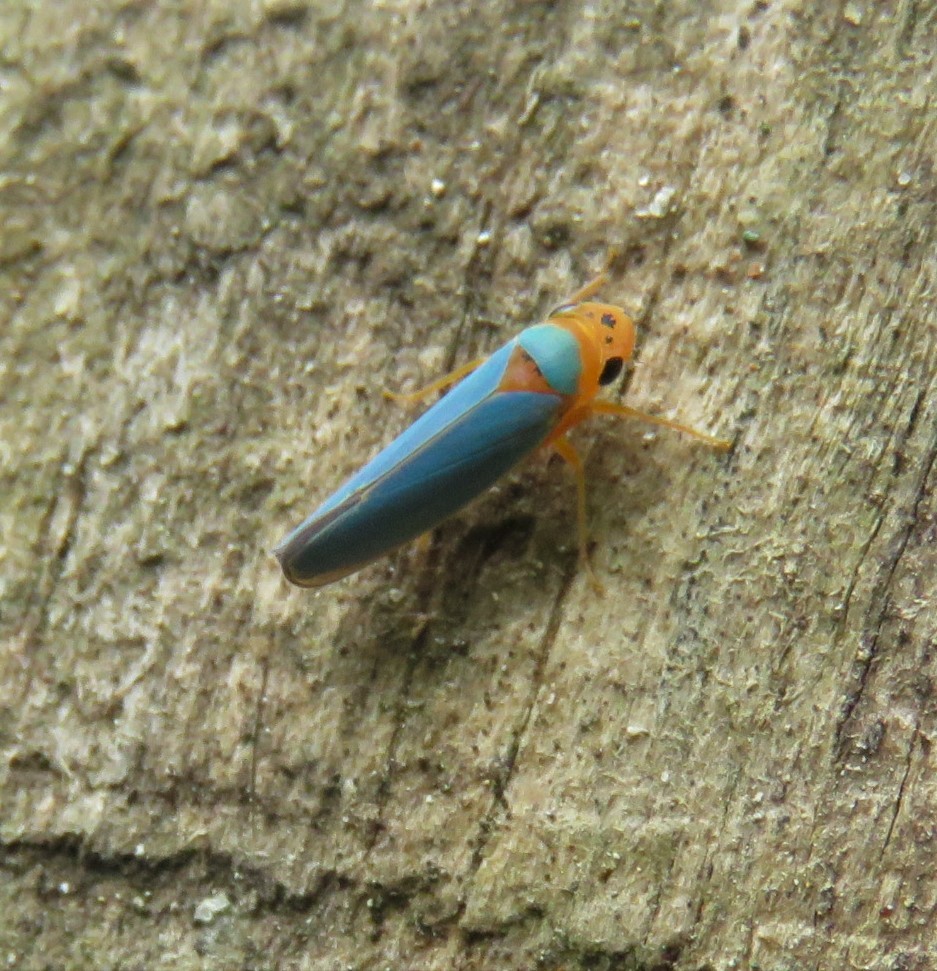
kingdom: Animalia
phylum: Arthropoda
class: Insecta
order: Hemiptera
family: Cicadellidae
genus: Macunolla
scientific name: Macunolla ventralis
